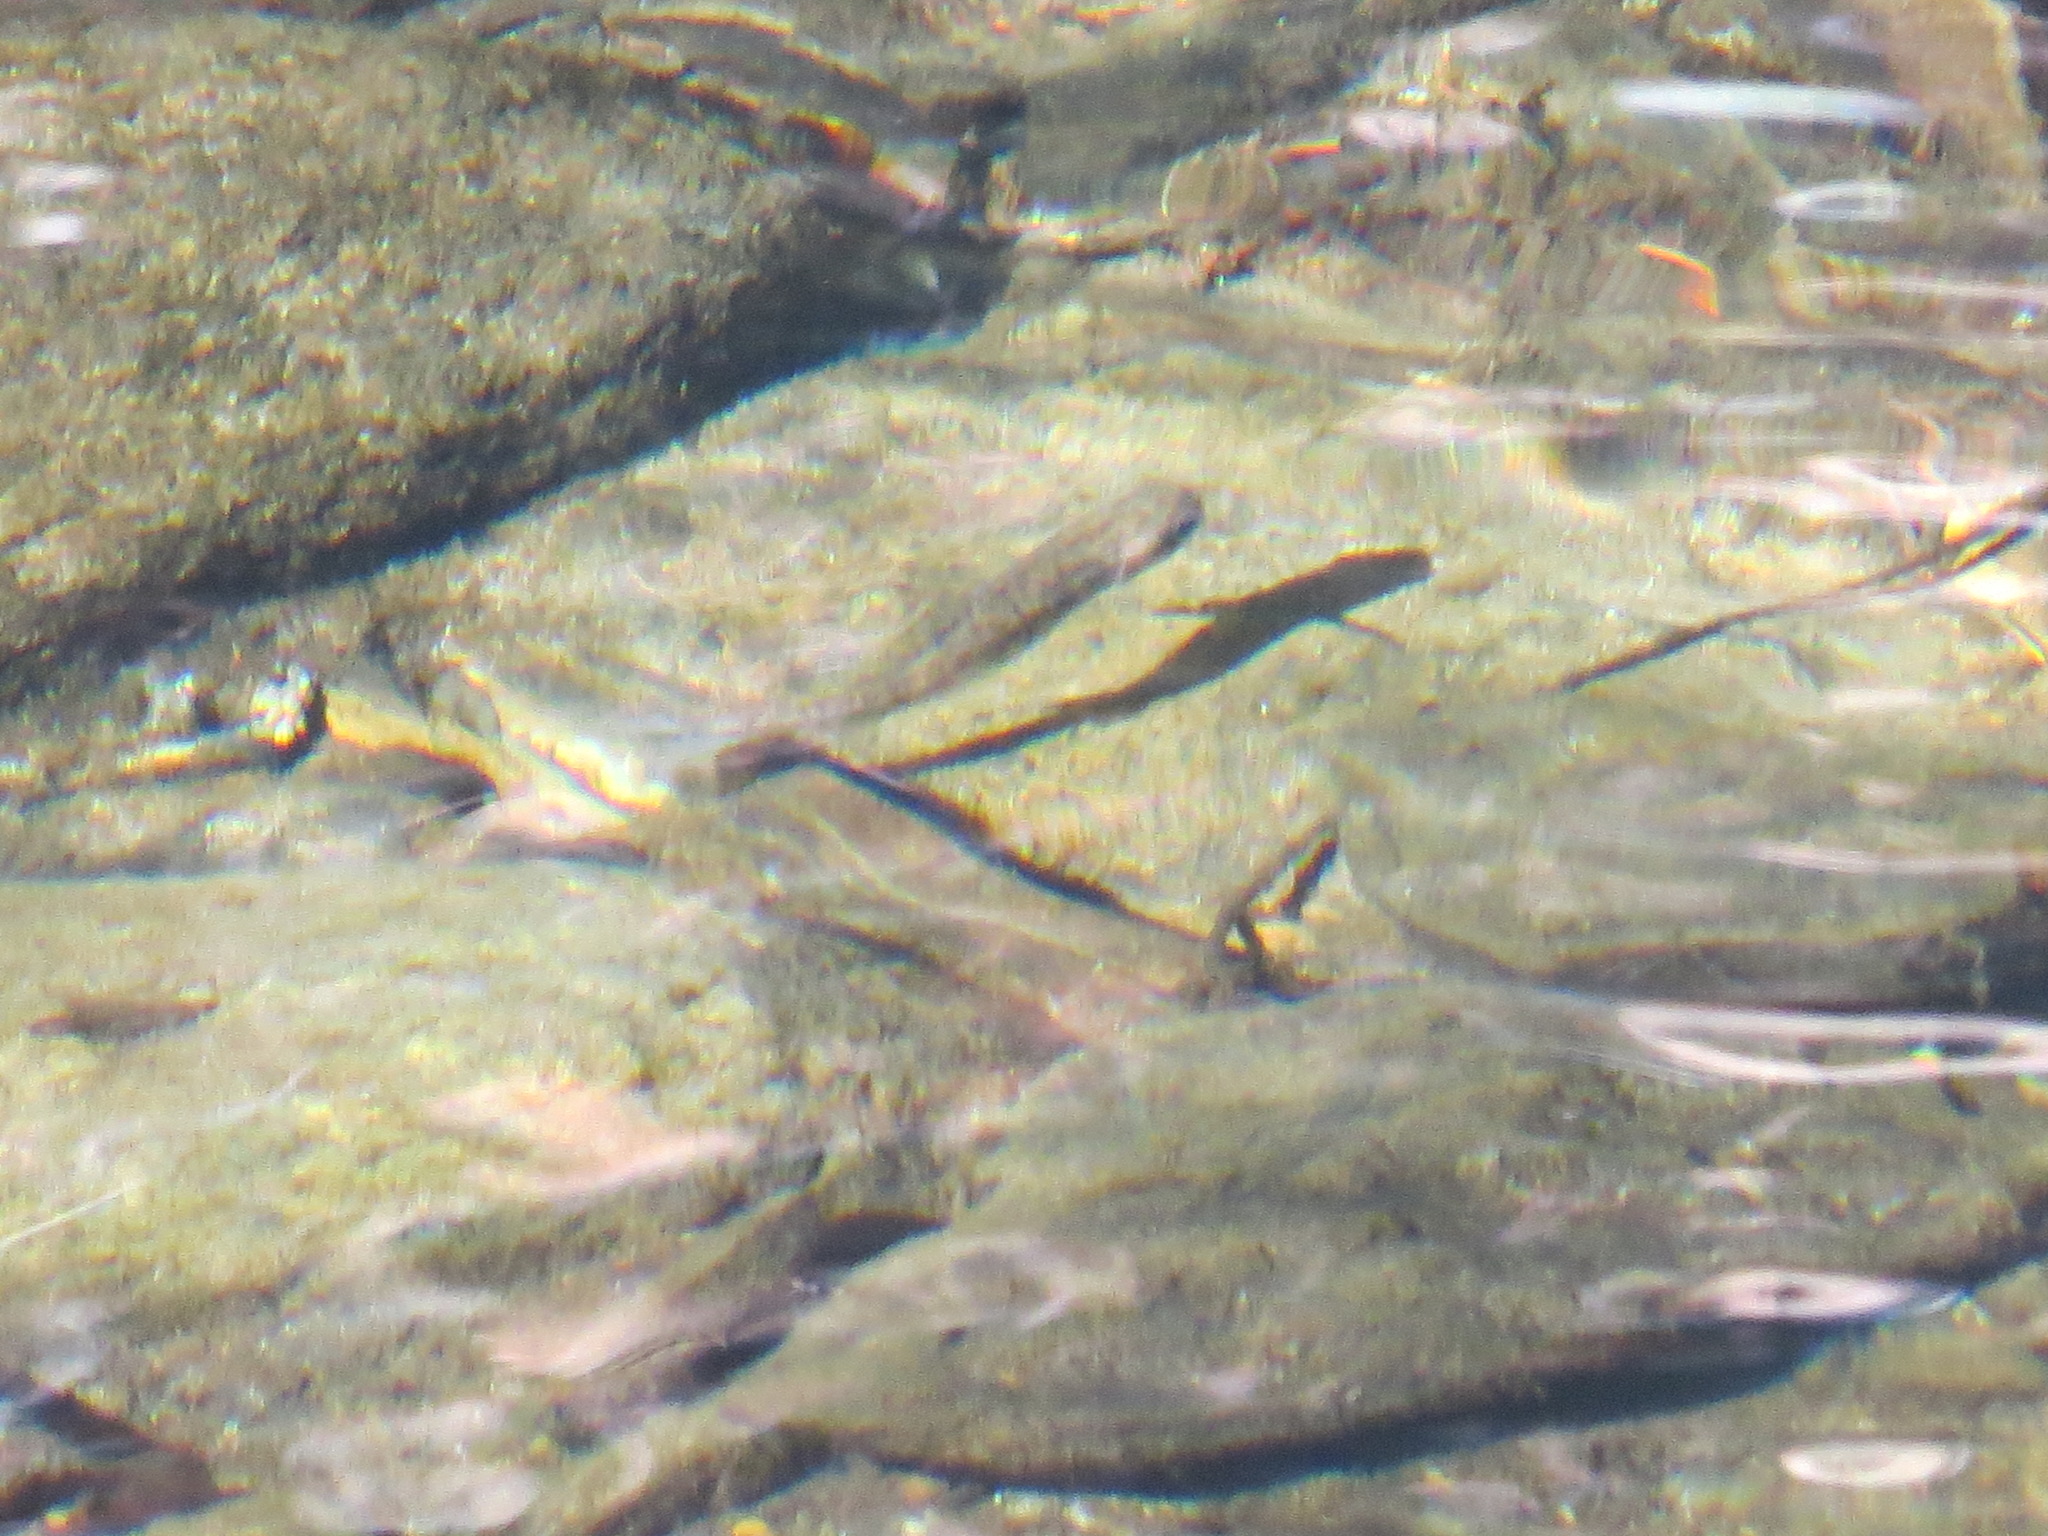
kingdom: Animalia
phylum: Chordata
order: Salmoniformes
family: Salmonidae
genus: Oncorhynchus
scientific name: Oncorhynchus mykiss
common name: Rainbow trout
